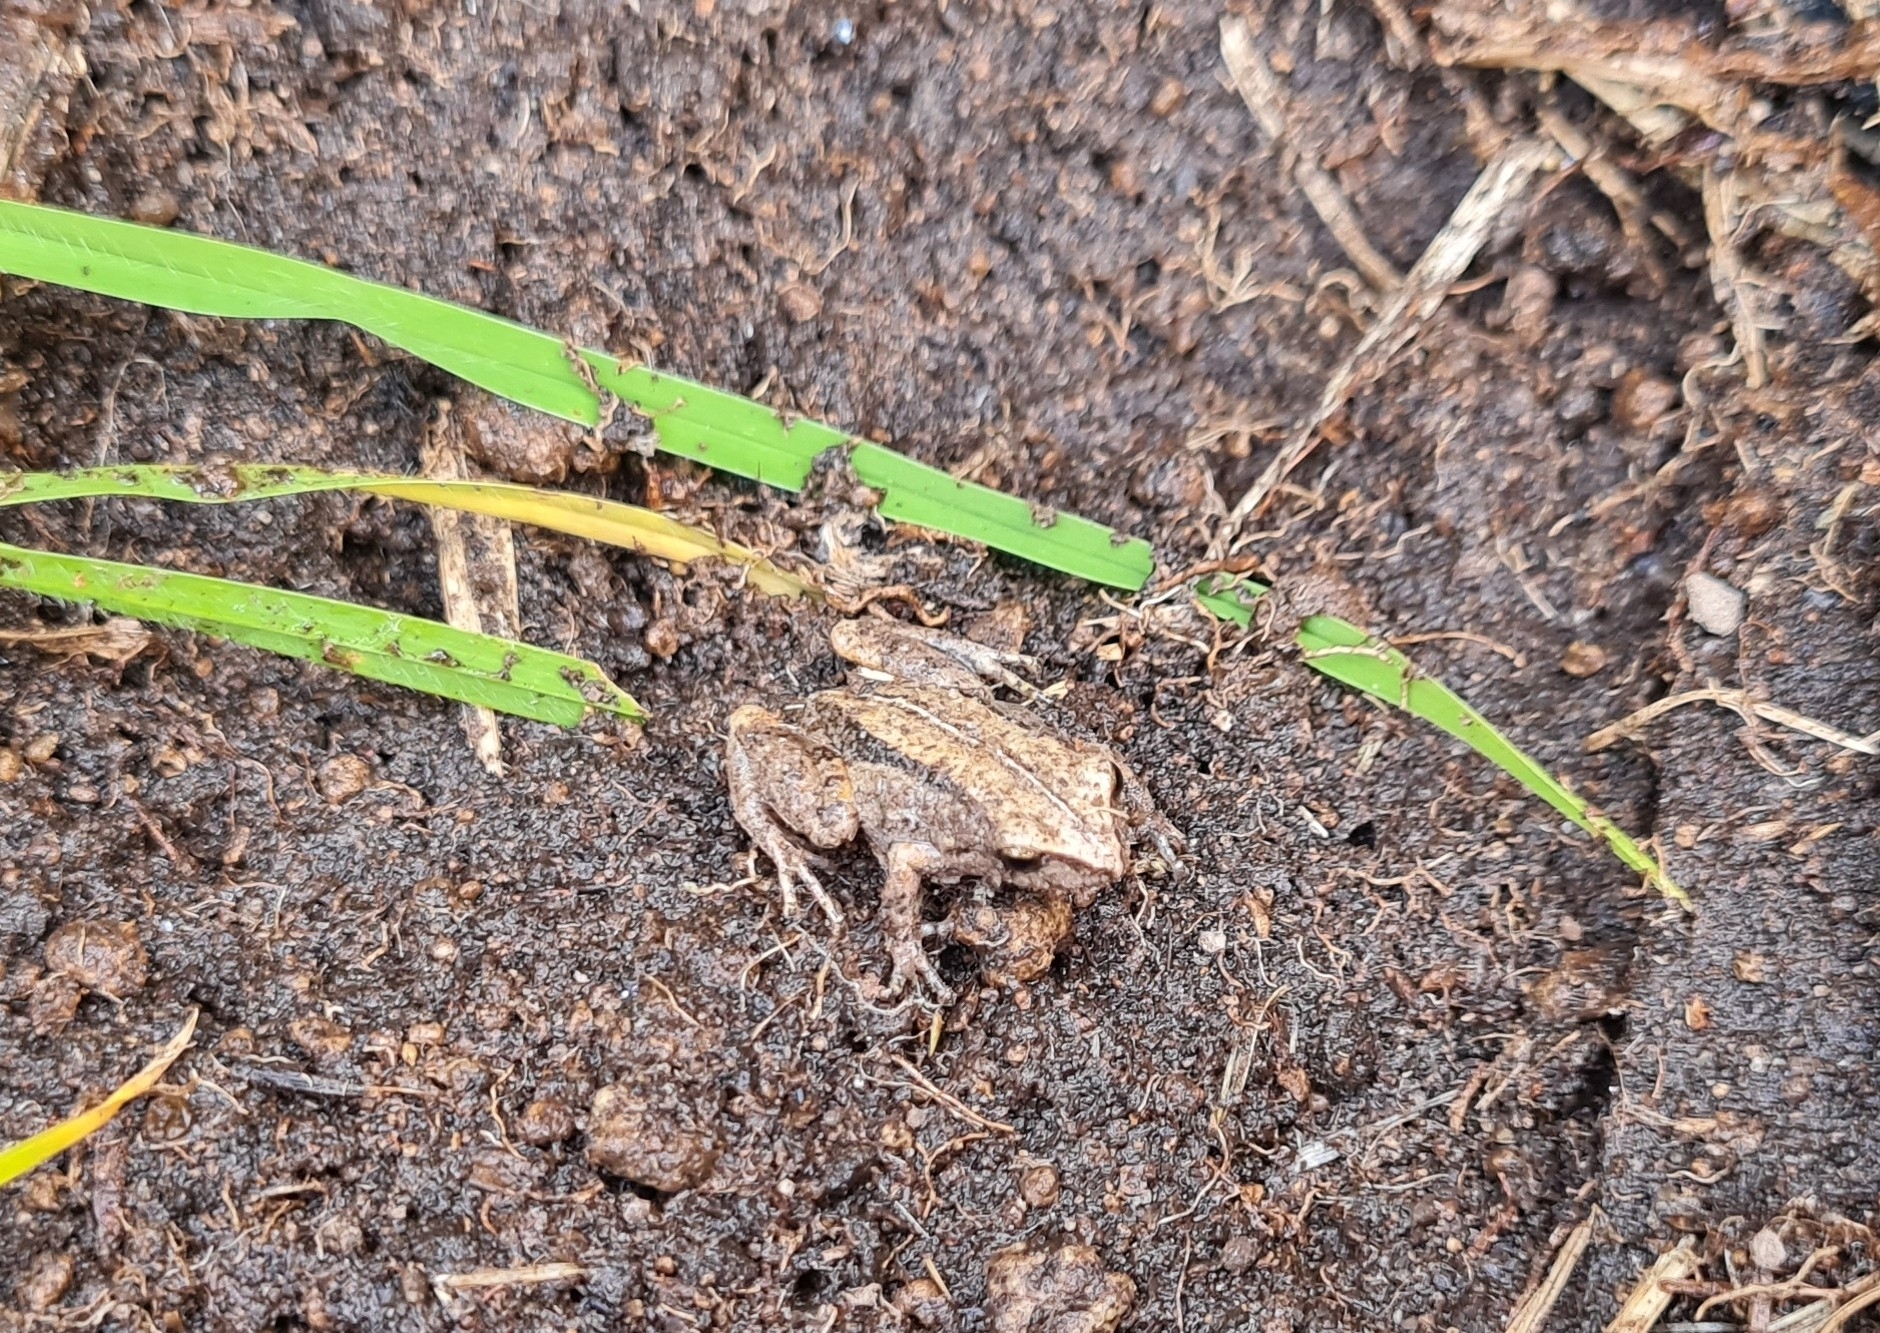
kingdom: Animalia
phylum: Chordata
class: Amphibia
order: Anura
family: Craugastoridae
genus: Pristimantis
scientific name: Pristimantis unistrigatus
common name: Striped robber frog
